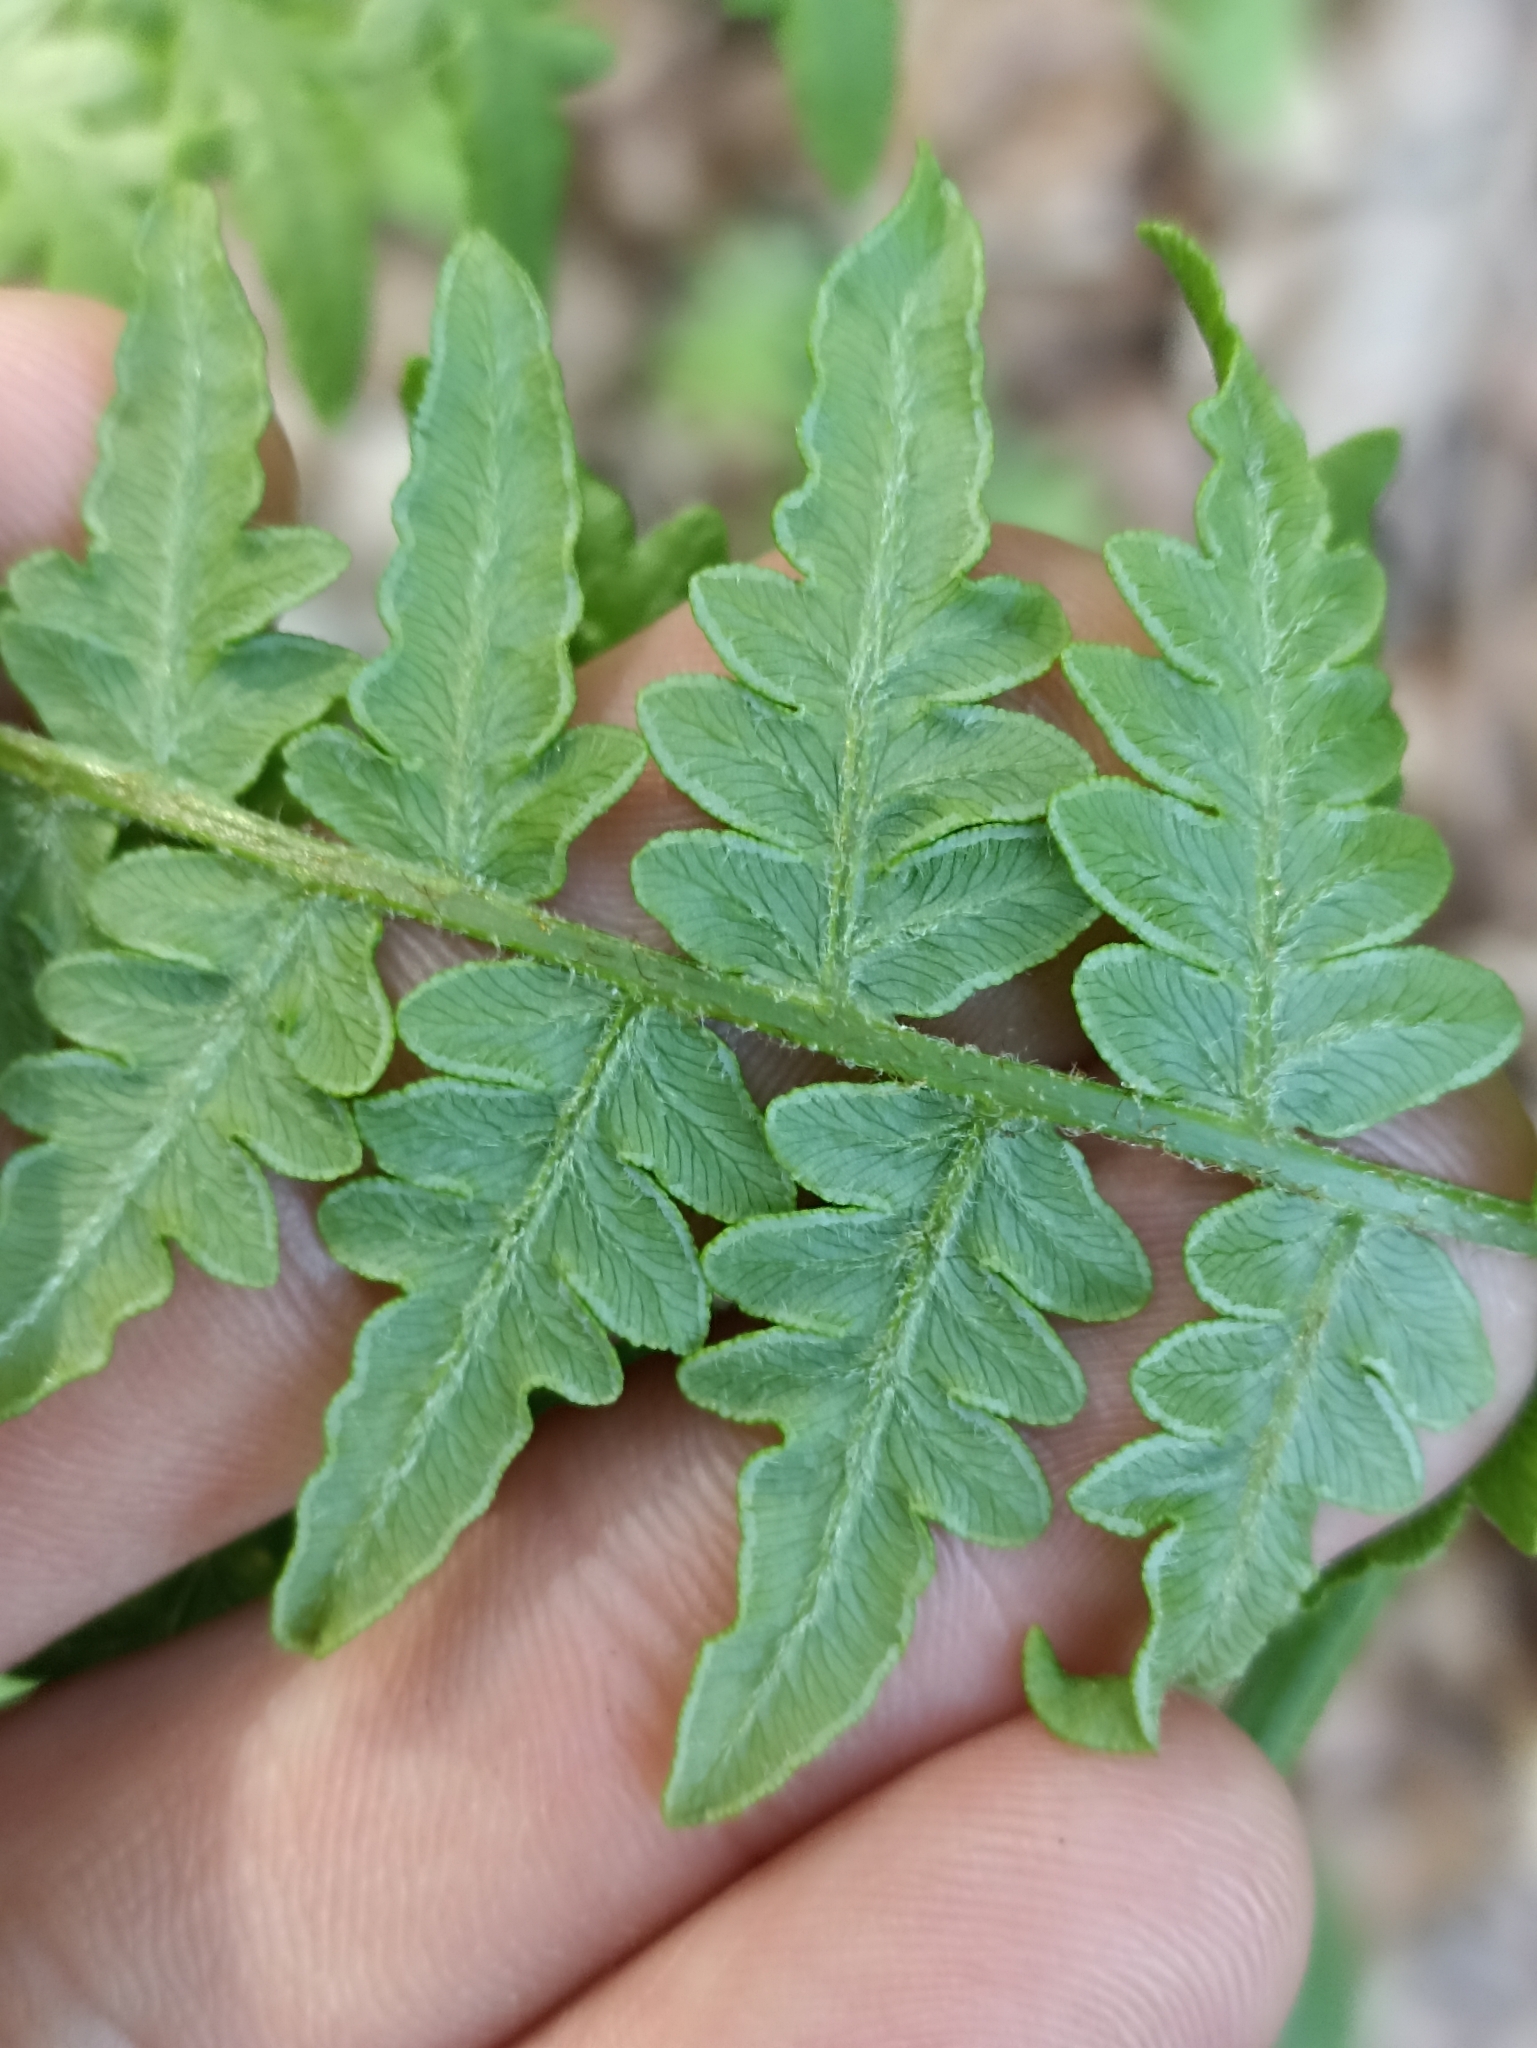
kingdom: Plantae
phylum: Tracheophyta
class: Polypodiopsida
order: Polypodiales
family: Dennstaedtiaceae
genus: Pteridium
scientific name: Pteridium aquilinum
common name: Bracken
